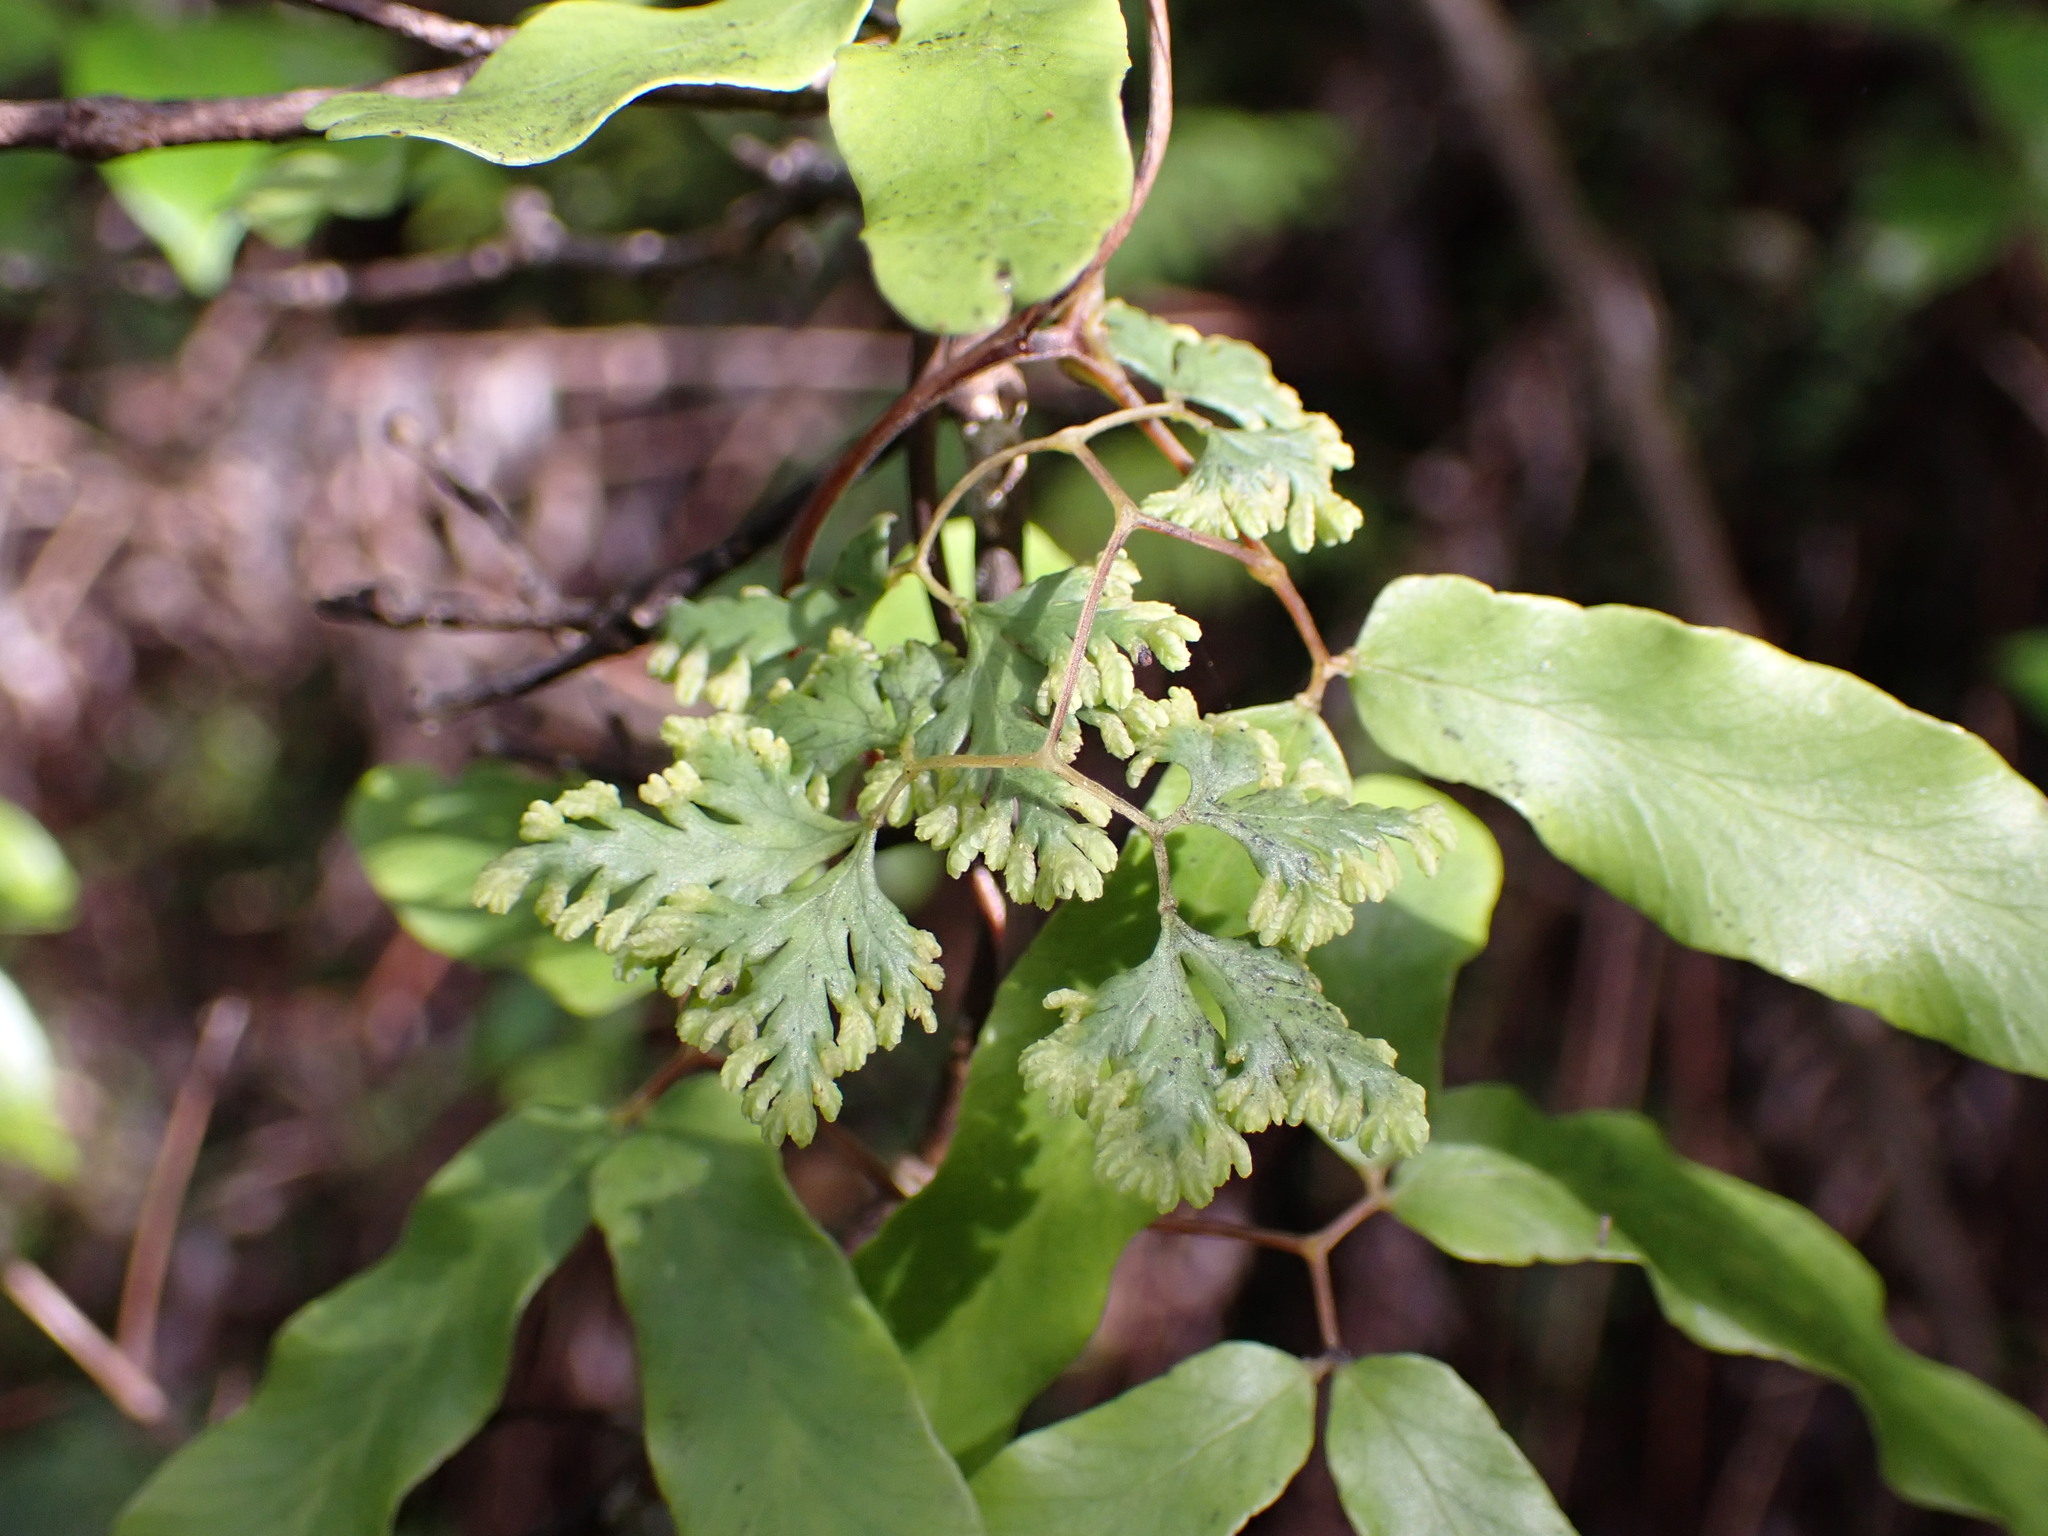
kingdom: Plantae
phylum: Tracheophyta
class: Polypodiopsida
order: Schizaeales
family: Lygodiaceae
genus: Lygodium
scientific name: Lygodium articulatum
